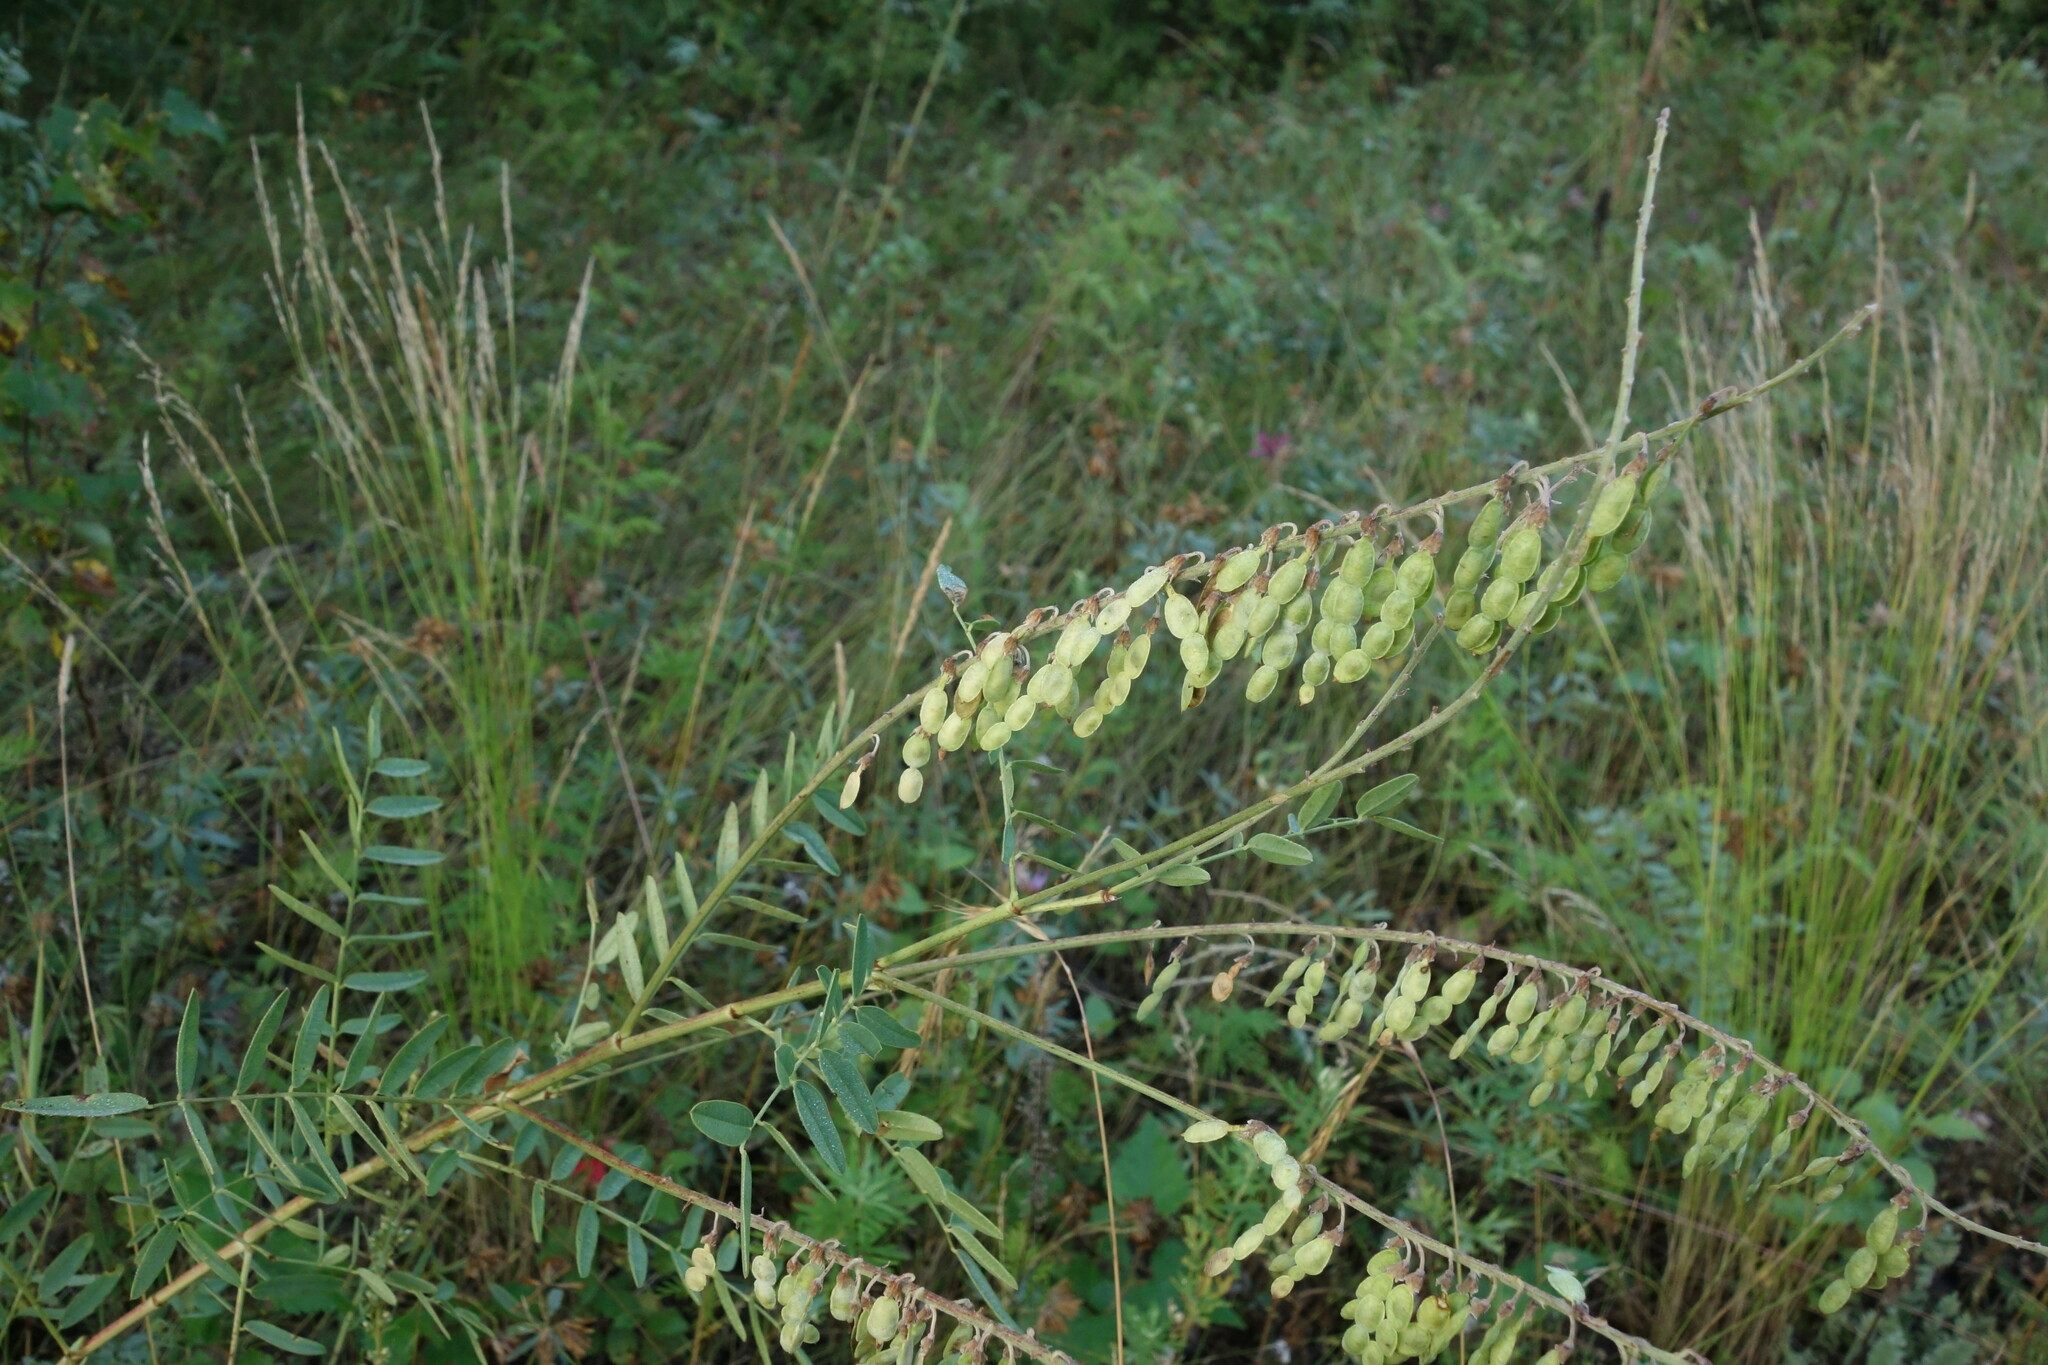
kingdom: Plantae
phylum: Tracheophyta
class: Magnoliopsida
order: Fabales
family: Fabaceae
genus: Hedysarum
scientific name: Hedysarum alpinum
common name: Alpine sweet-vetch
